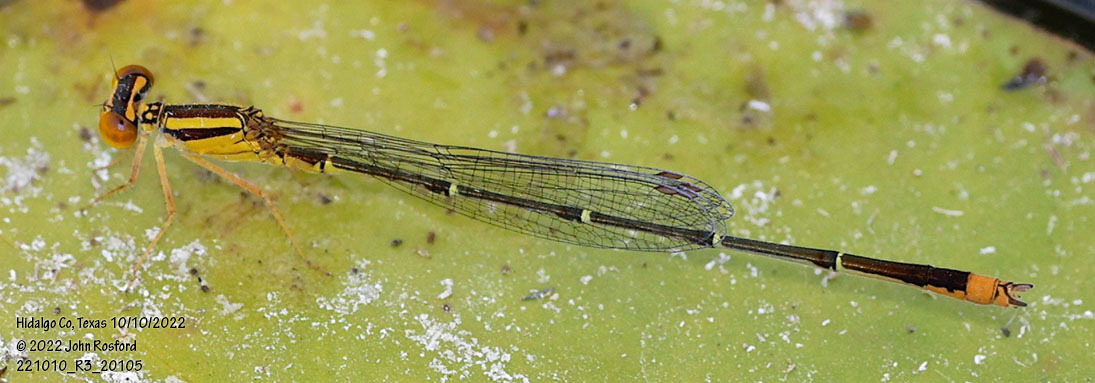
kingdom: Animalia
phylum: Arthropoda
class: Insecta
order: Odonata
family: Coenagrionidae
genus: Enallagma
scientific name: Enallagma signatum
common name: Orange bluet
